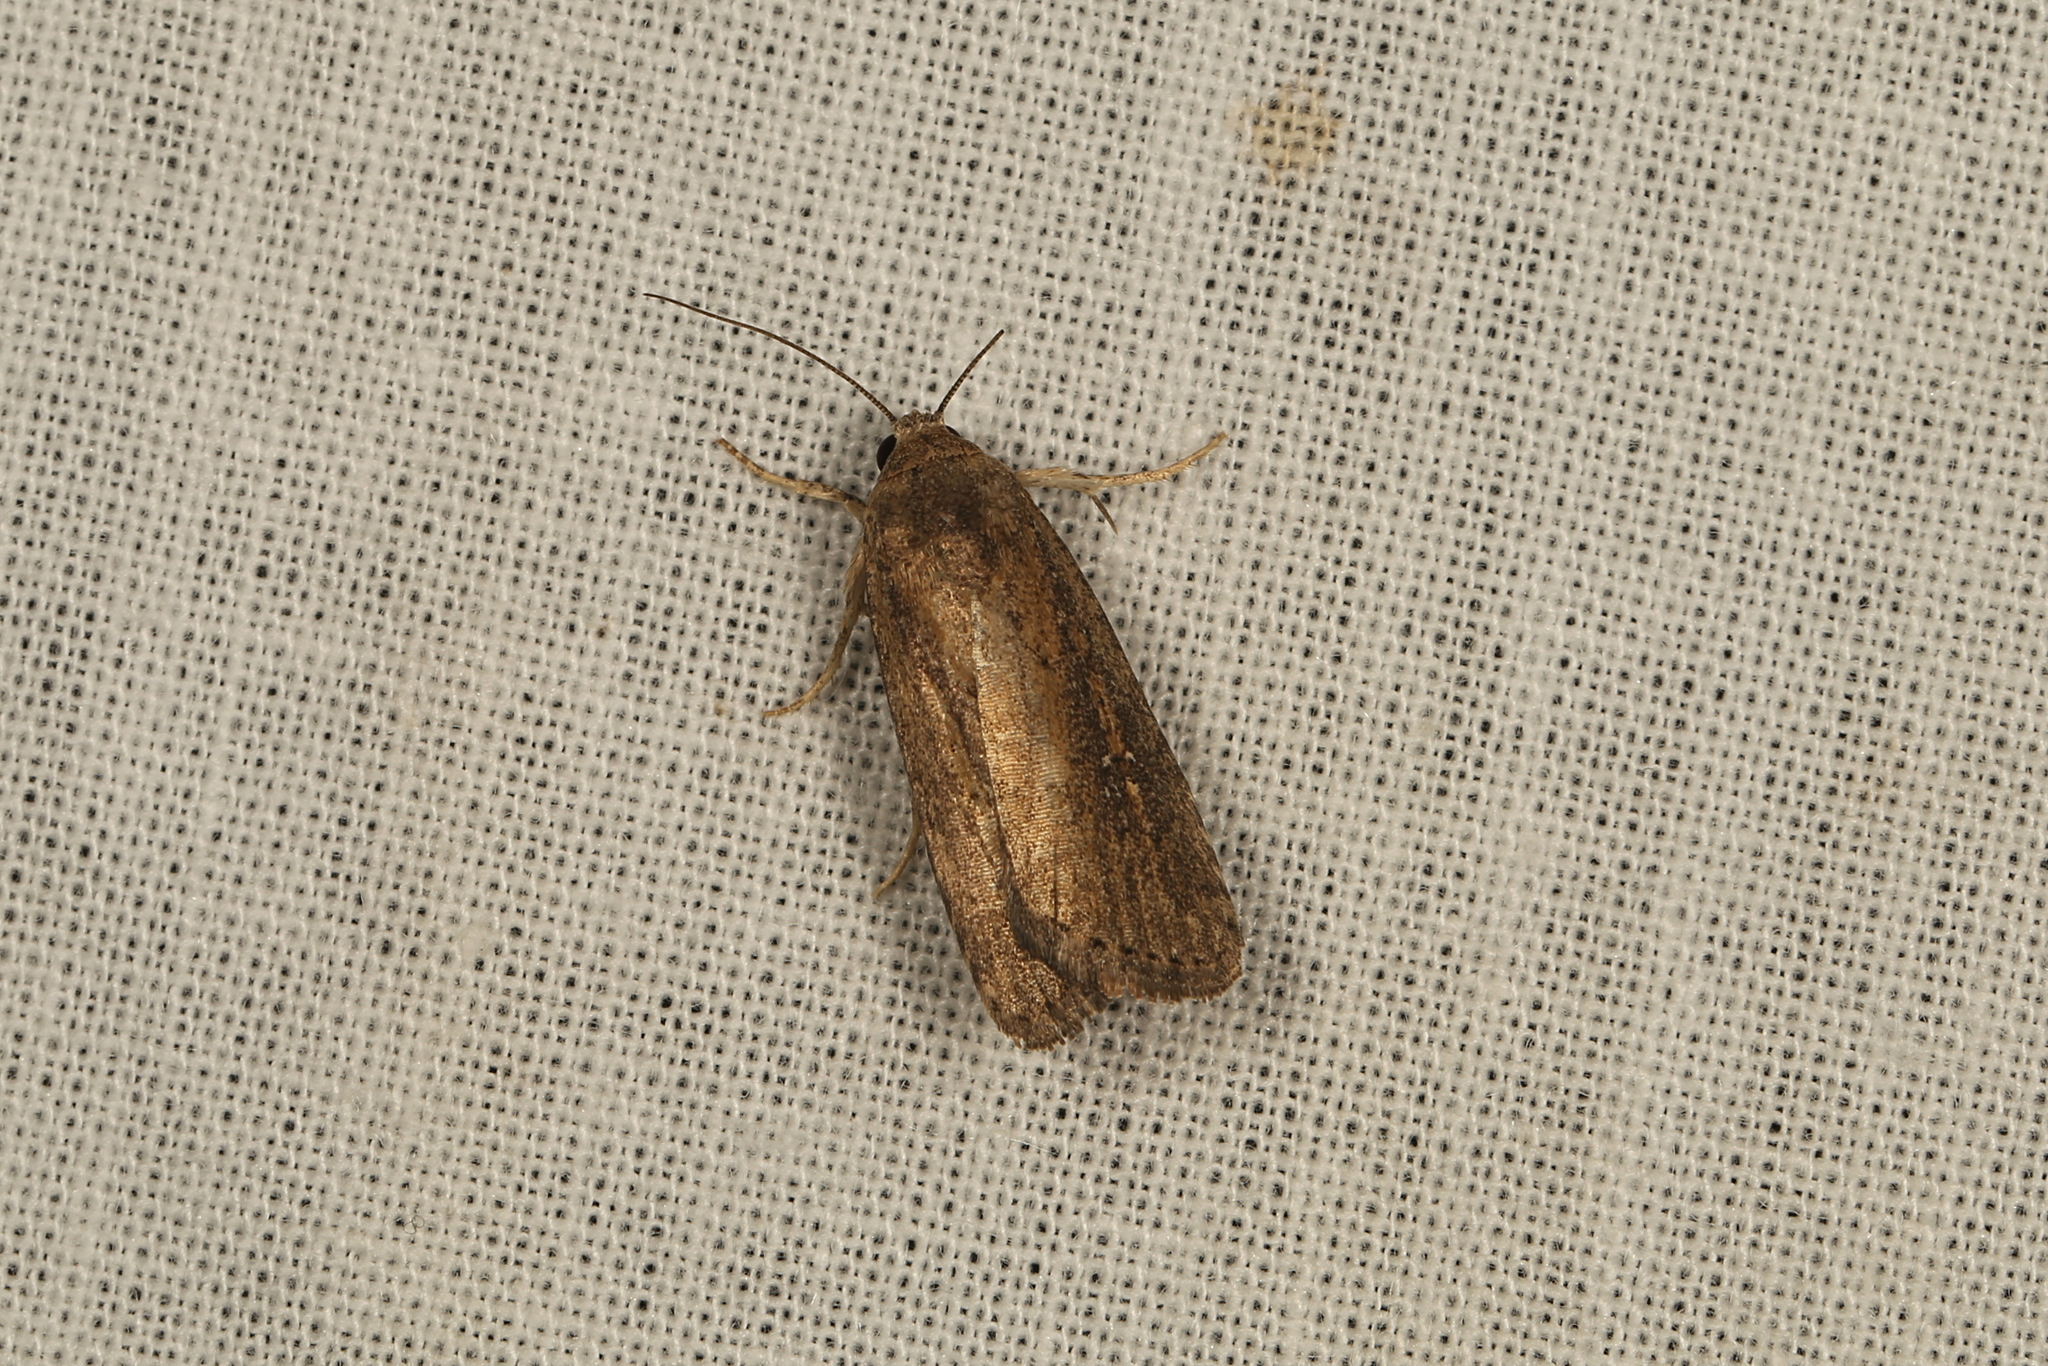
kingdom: Animalia
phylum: Arthropoda
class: Insecta
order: Lepidoptera
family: Noctuidae
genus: Athetis
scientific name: Athetis tenuis
